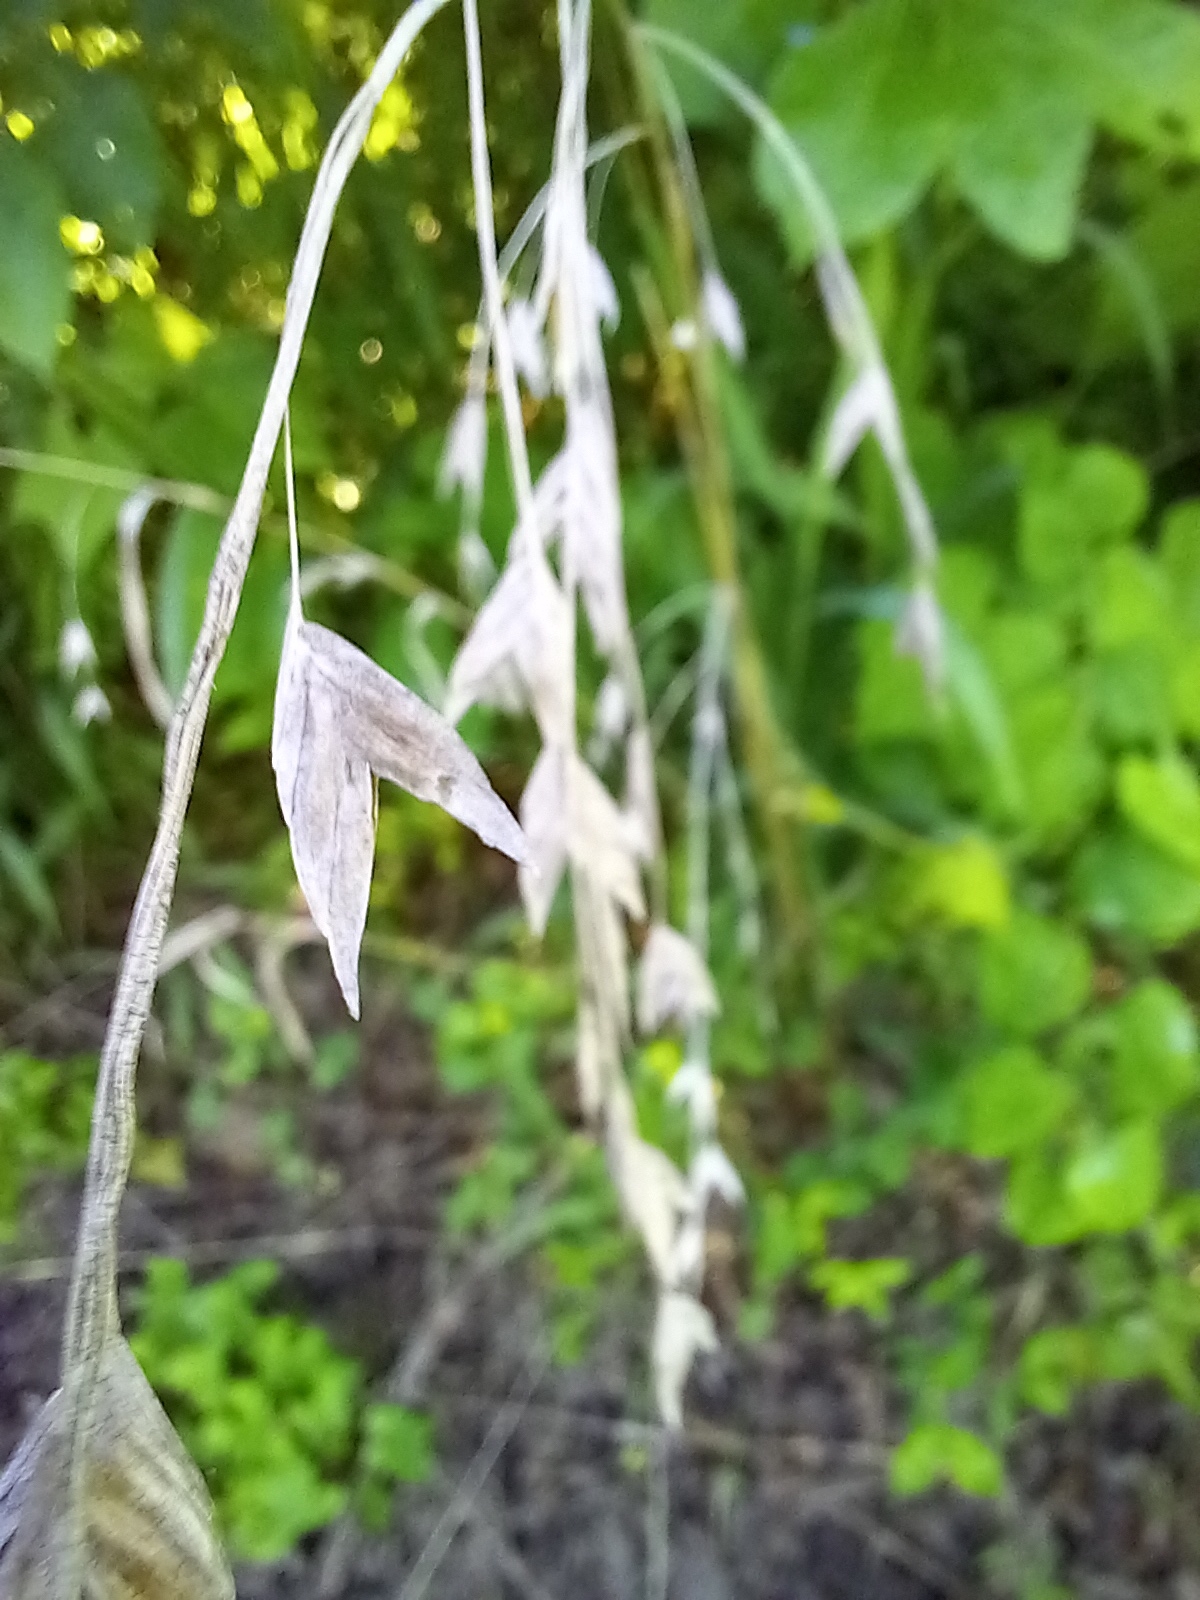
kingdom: Plantae
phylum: Tracheophyta
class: Liliopsida
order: Poales
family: Poaceae
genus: Chasmanthium
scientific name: Chasmanthium latifolium
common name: Broad-leaved chasmanthium
